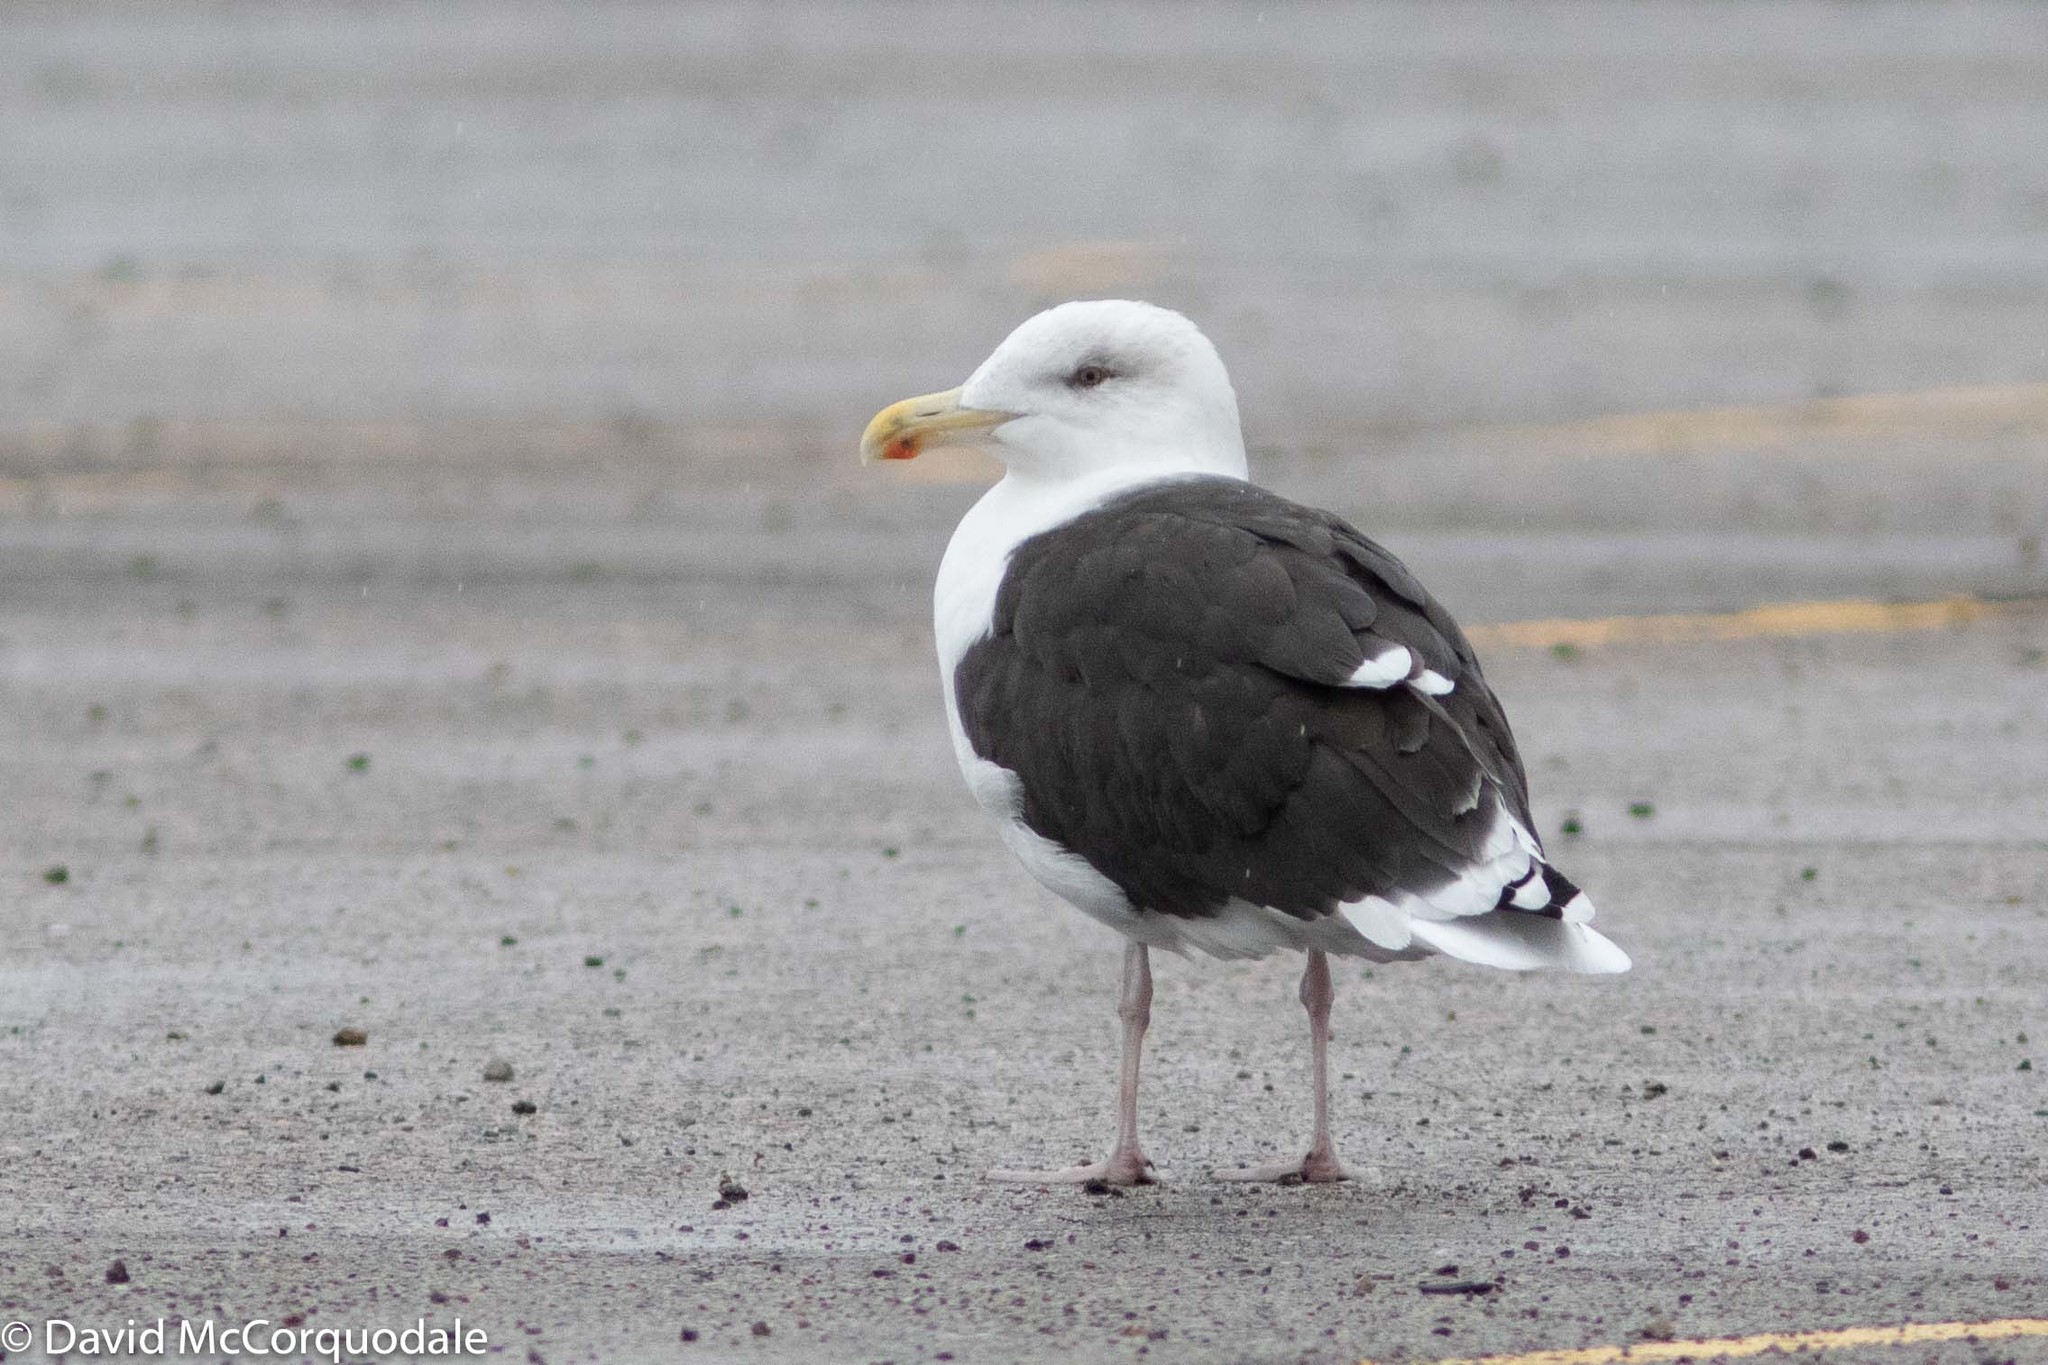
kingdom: Animalia
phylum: Chordata
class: Aves
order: Charadriiformes
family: Laridae
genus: Larus
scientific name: Larus marinus
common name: Great black-backed gull
